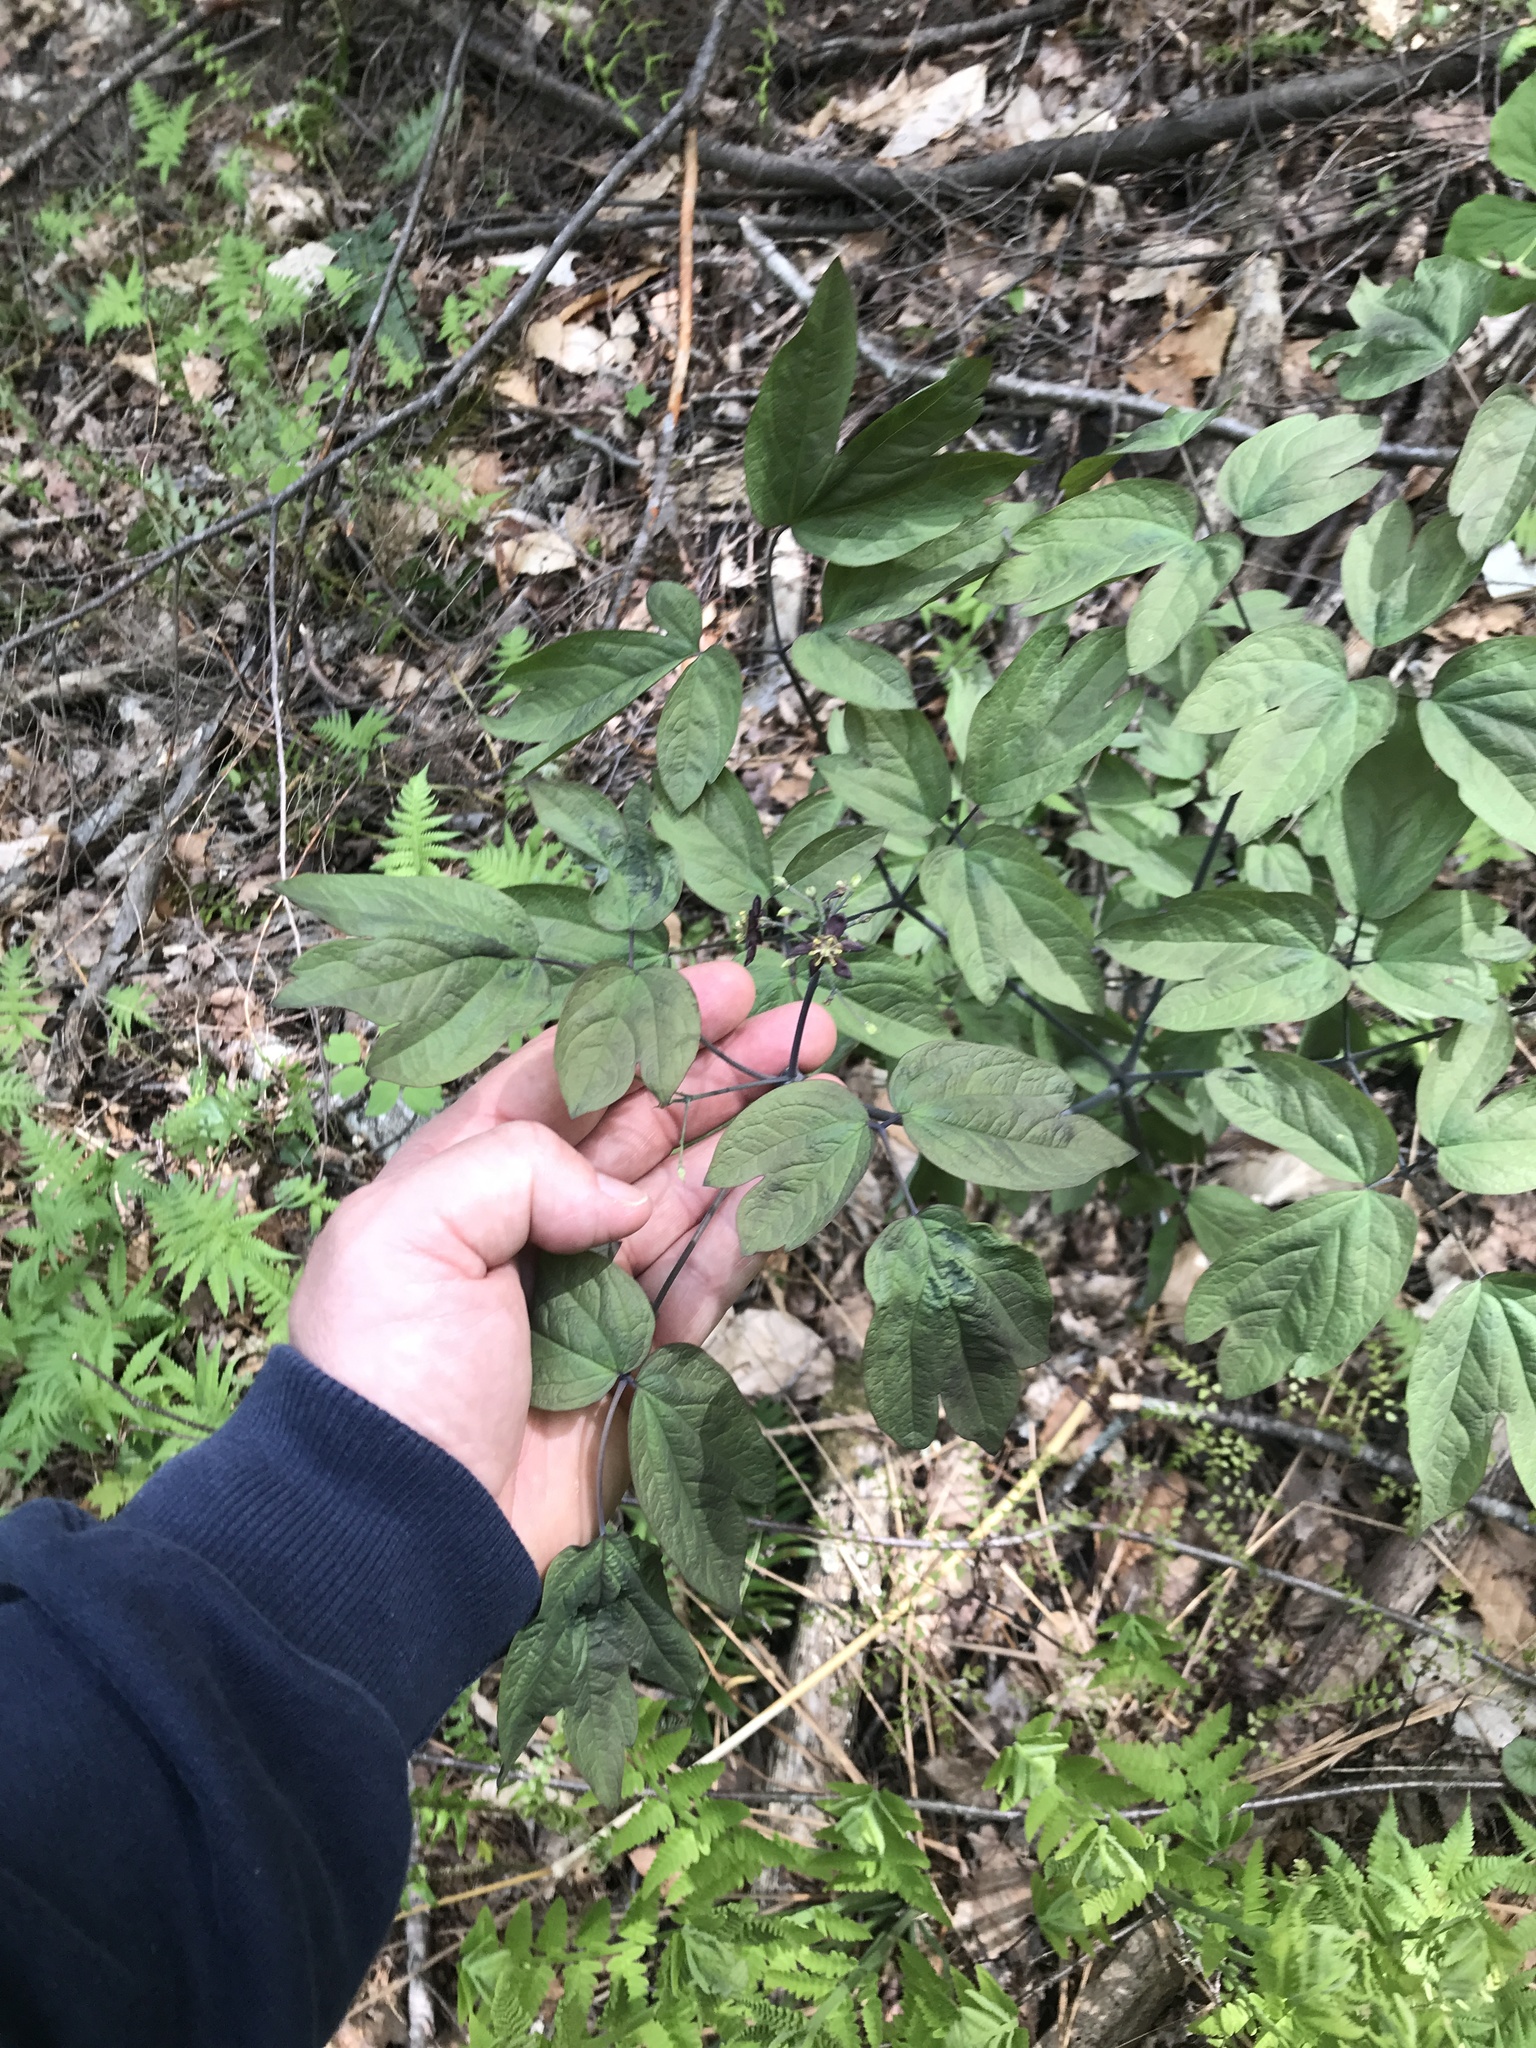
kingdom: Plantae
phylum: Tracheophyta
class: Magnoliopsida
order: Ranunculales
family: Berberidaceae
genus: Caulophyllum
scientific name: Caulophyllum giganteum
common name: Blue cohosh
